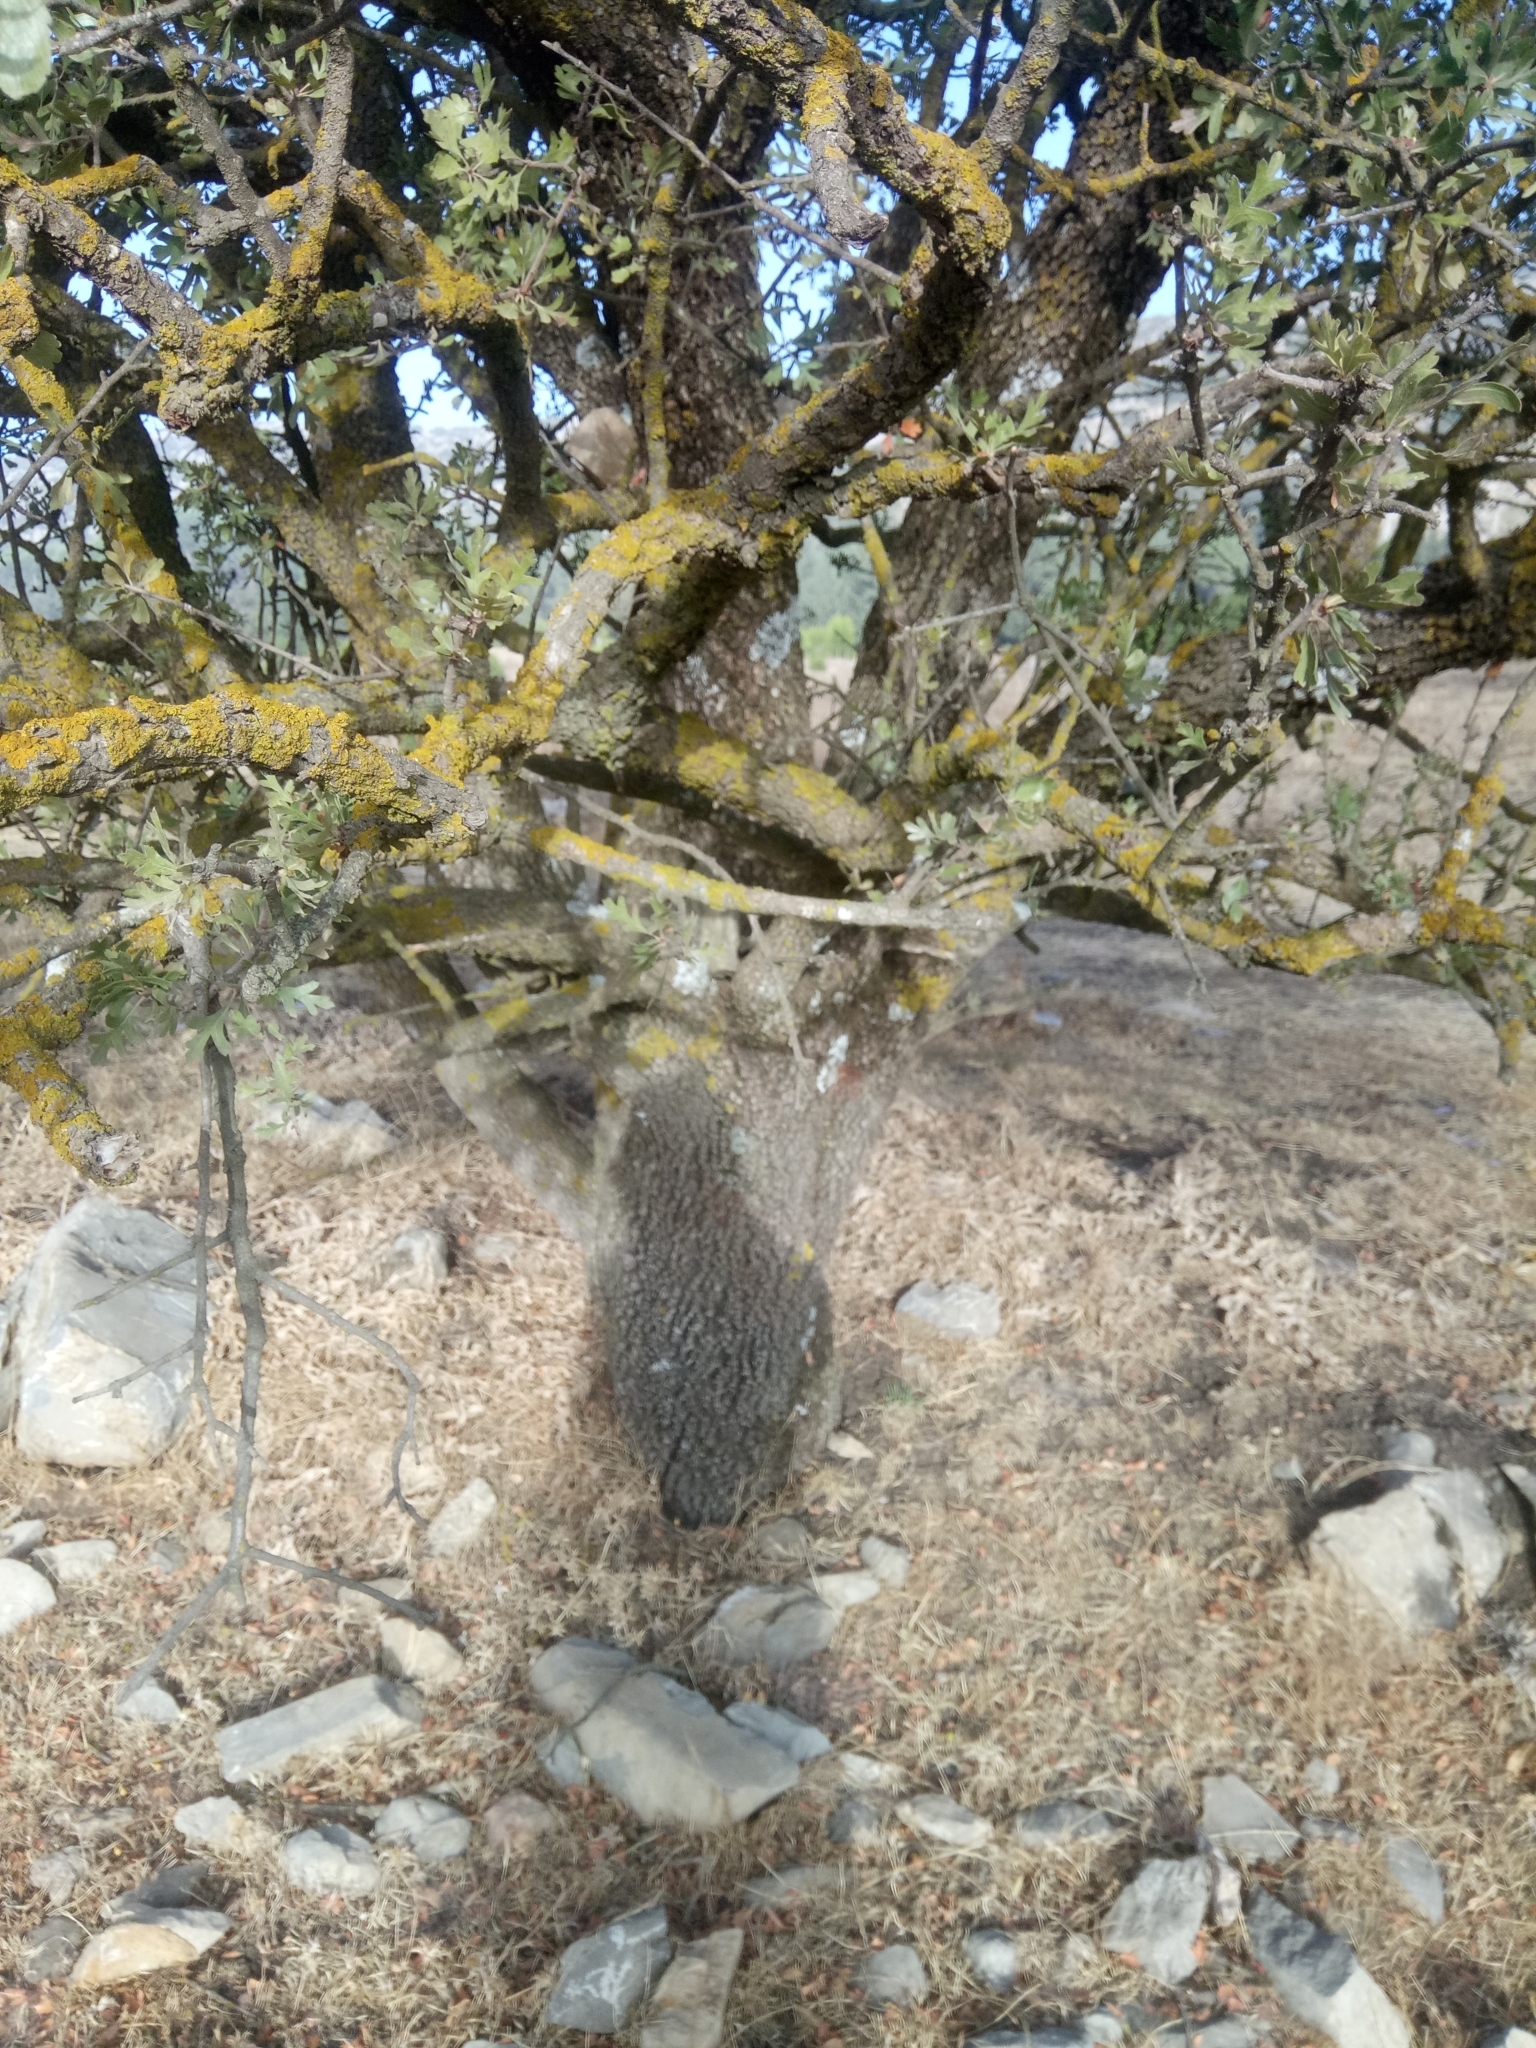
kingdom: Plantae
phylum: Tracheophyta
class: Magnoliopsida
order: Rosales
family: Rosaceae
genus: Crataegus
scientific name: Crataegus azarolus
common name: Azarole
